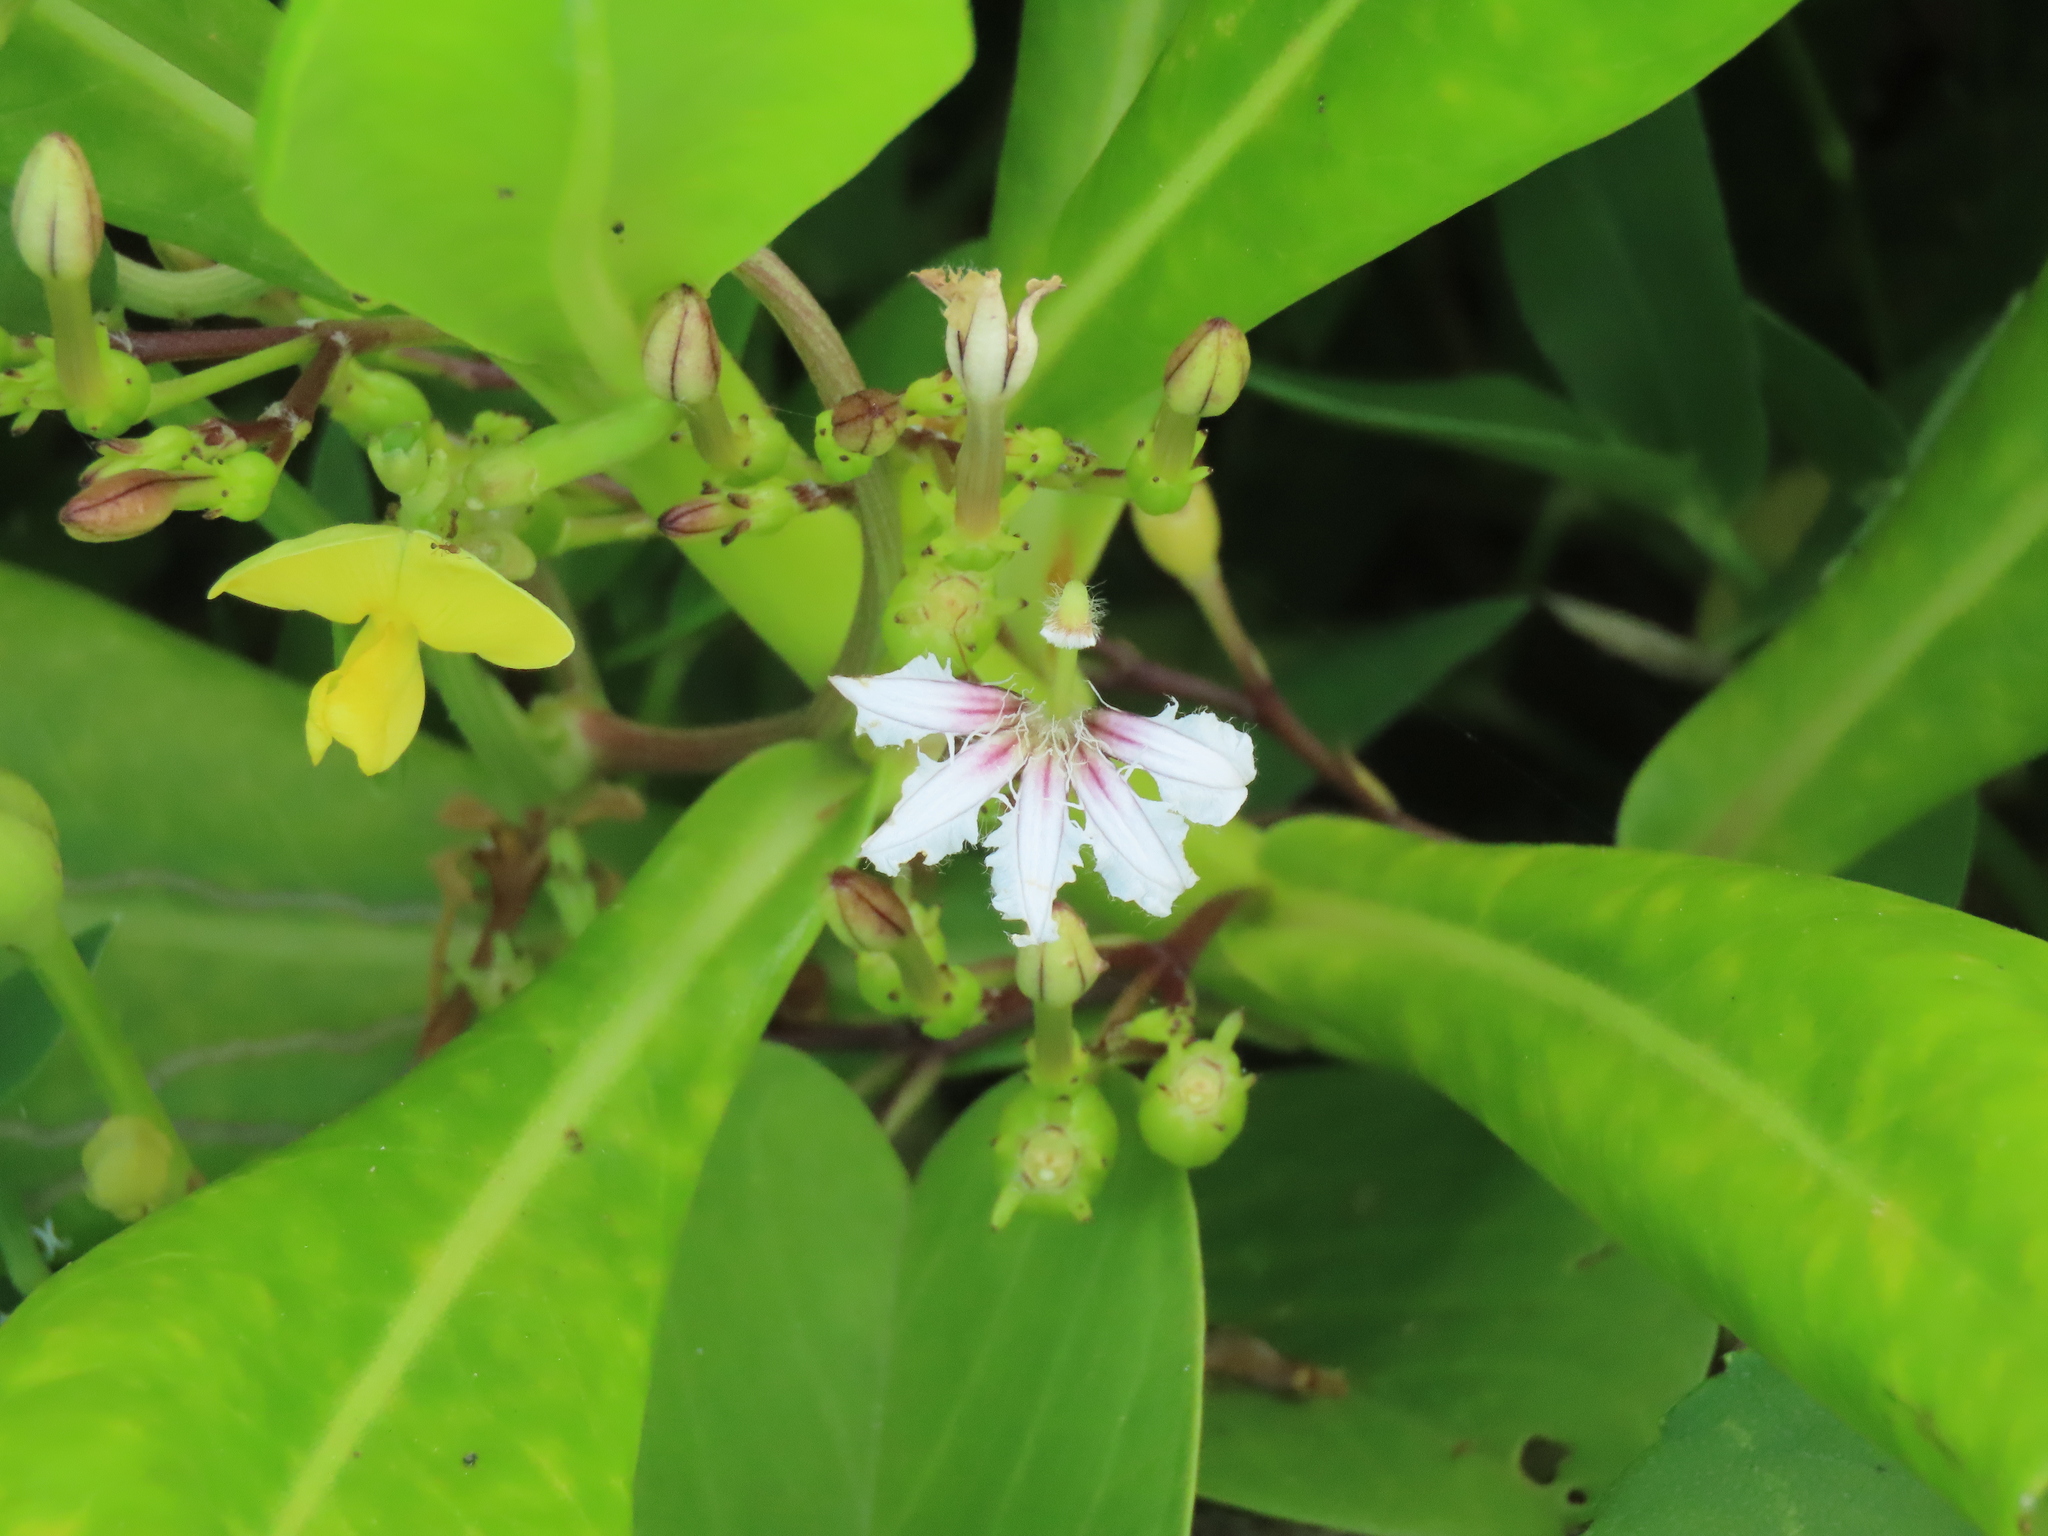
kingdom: Plantae
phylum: Tracheophyta
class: Magnoliopsida
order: Asterales
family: Goodeniaceae
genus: Scaevola
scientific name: Scaevola taccada
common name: Sea lettucetree
